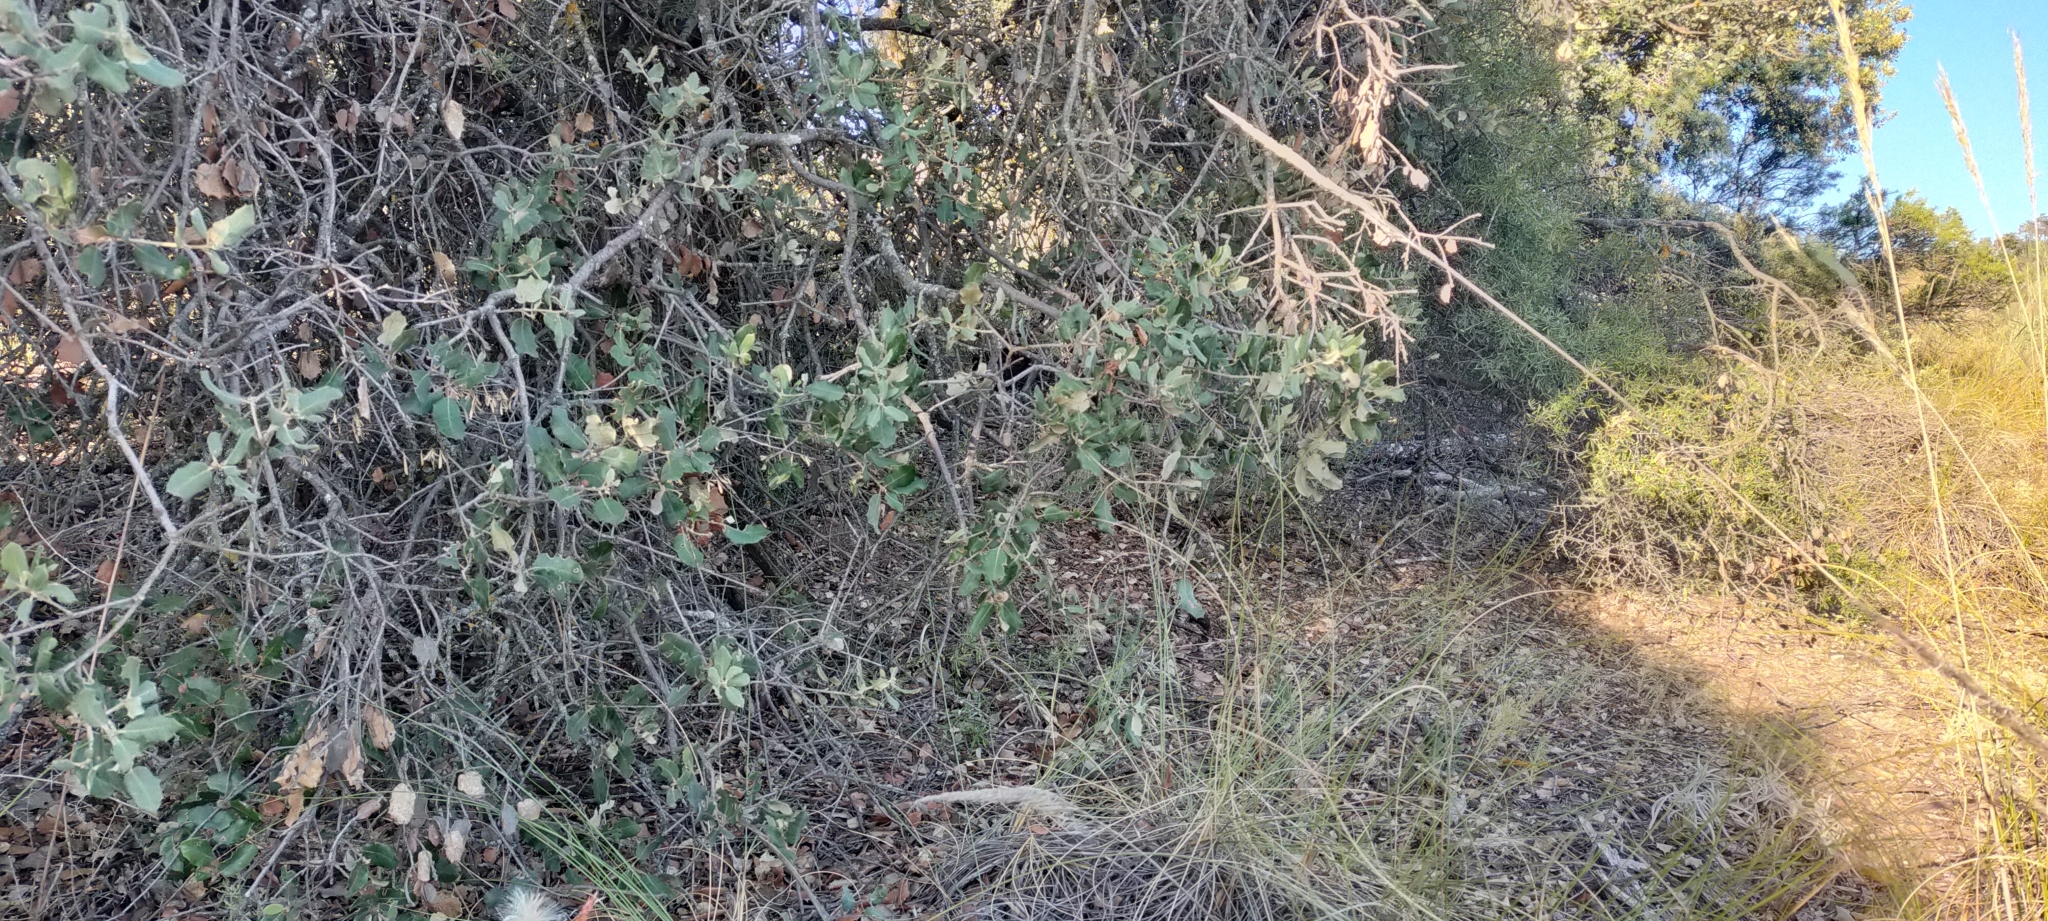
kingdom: Plantae
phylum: Tracheophyta
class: Magnoliopsida
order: Fagales
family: Fagaceae
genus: Quercus
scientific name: Quercus rotundifolia
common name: Holm oak
